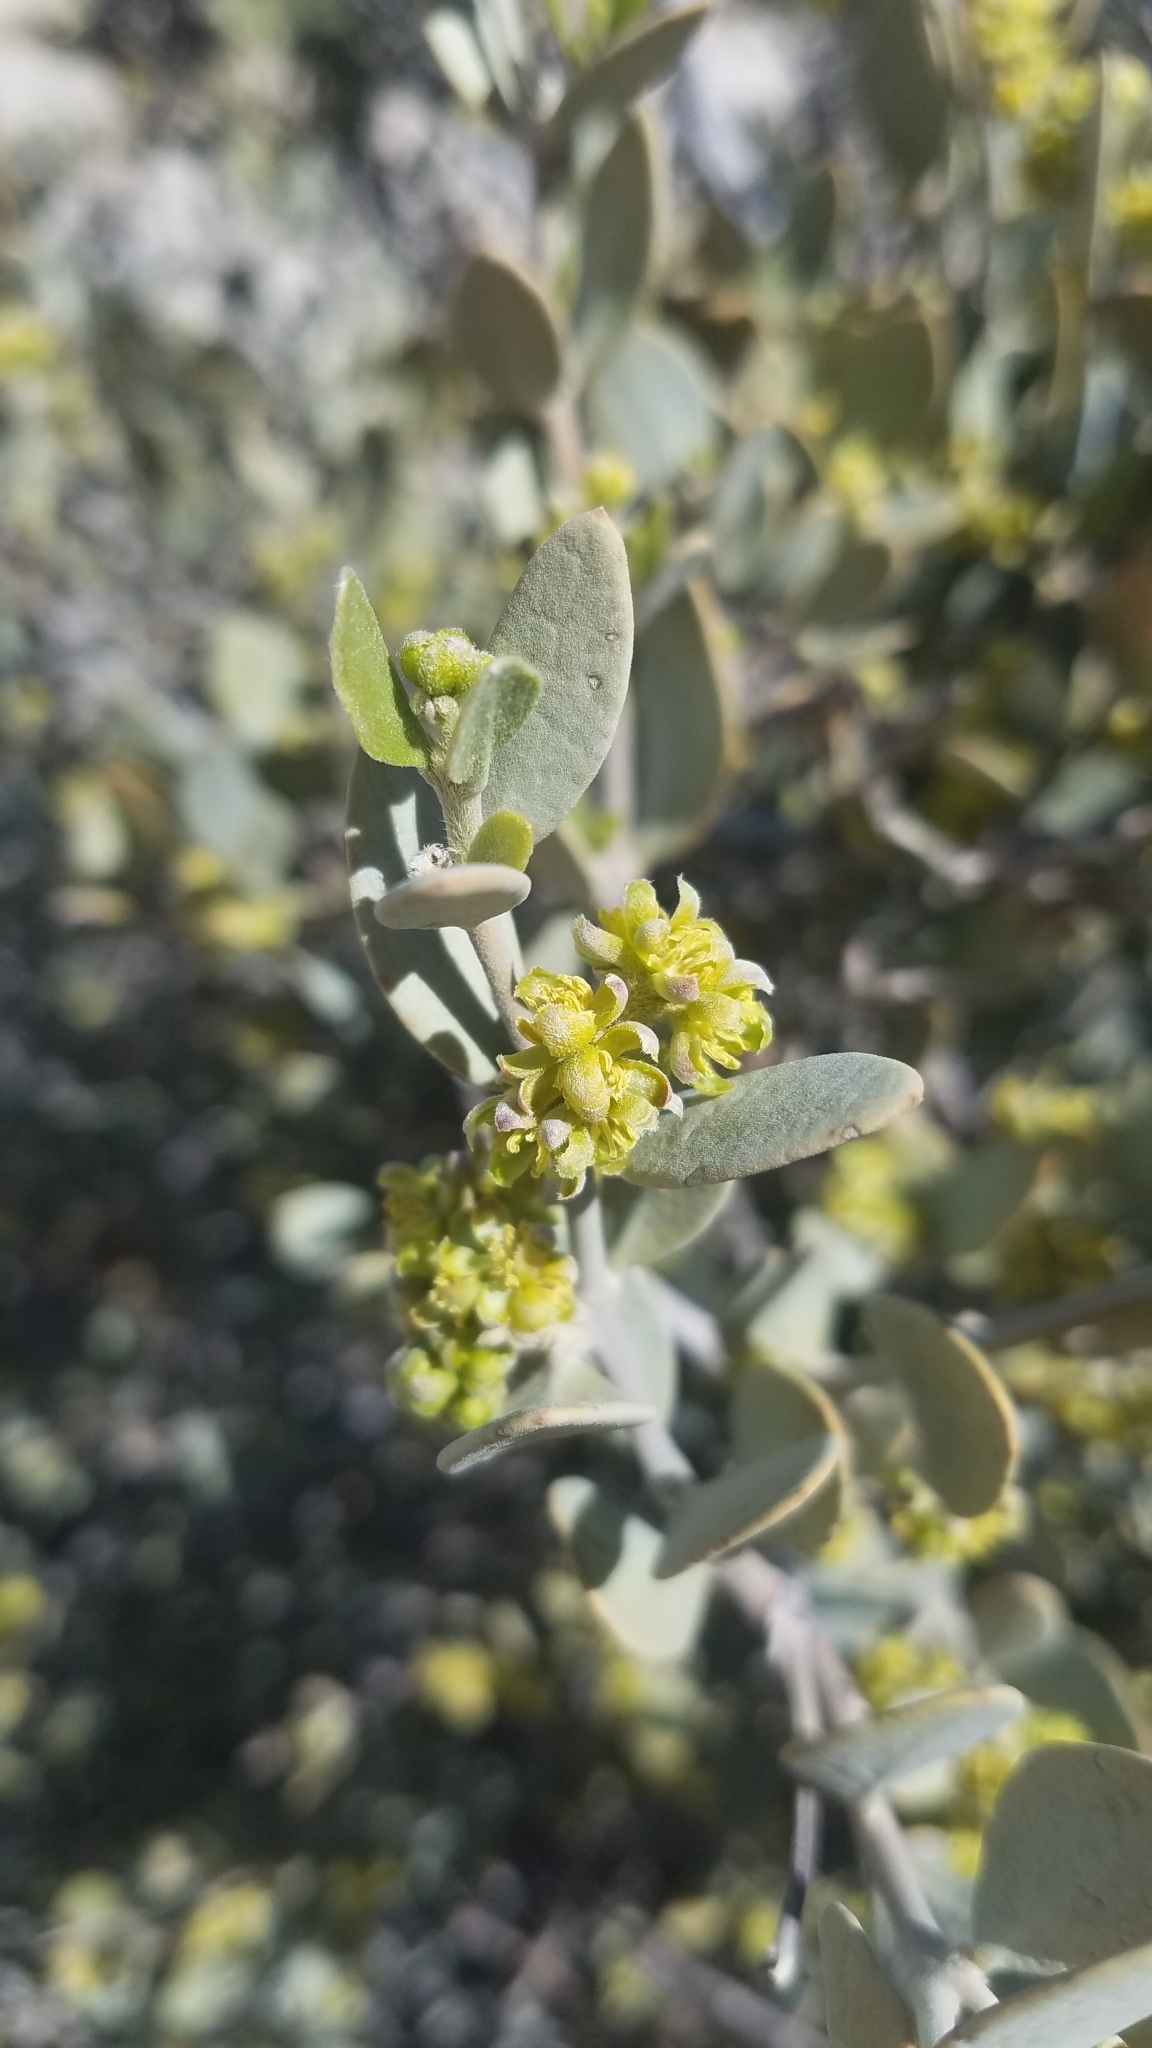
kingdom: Plantae
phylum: Tracheophyta
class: Magnoliopsida
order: Caryophyllales
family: Simmondsiaceae
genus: Simmondsia
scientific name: Simmondsia chinensis
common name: Jojoba
